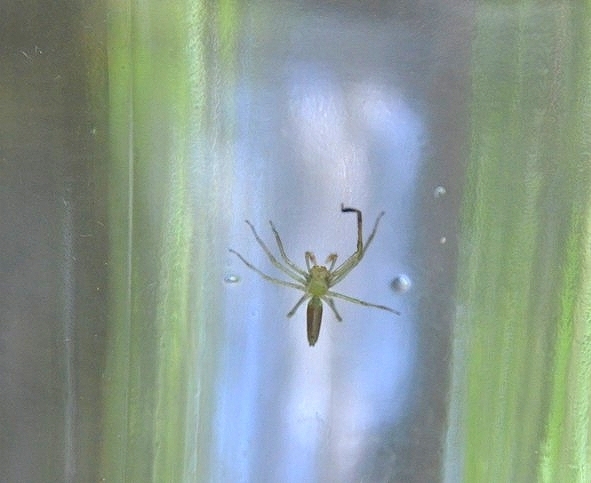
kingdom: Animalia
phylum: Arthropoda
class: Arachnida
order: Araneae
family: Salticidae
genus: Lyssomanes
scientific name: Lyssomanes pauper
